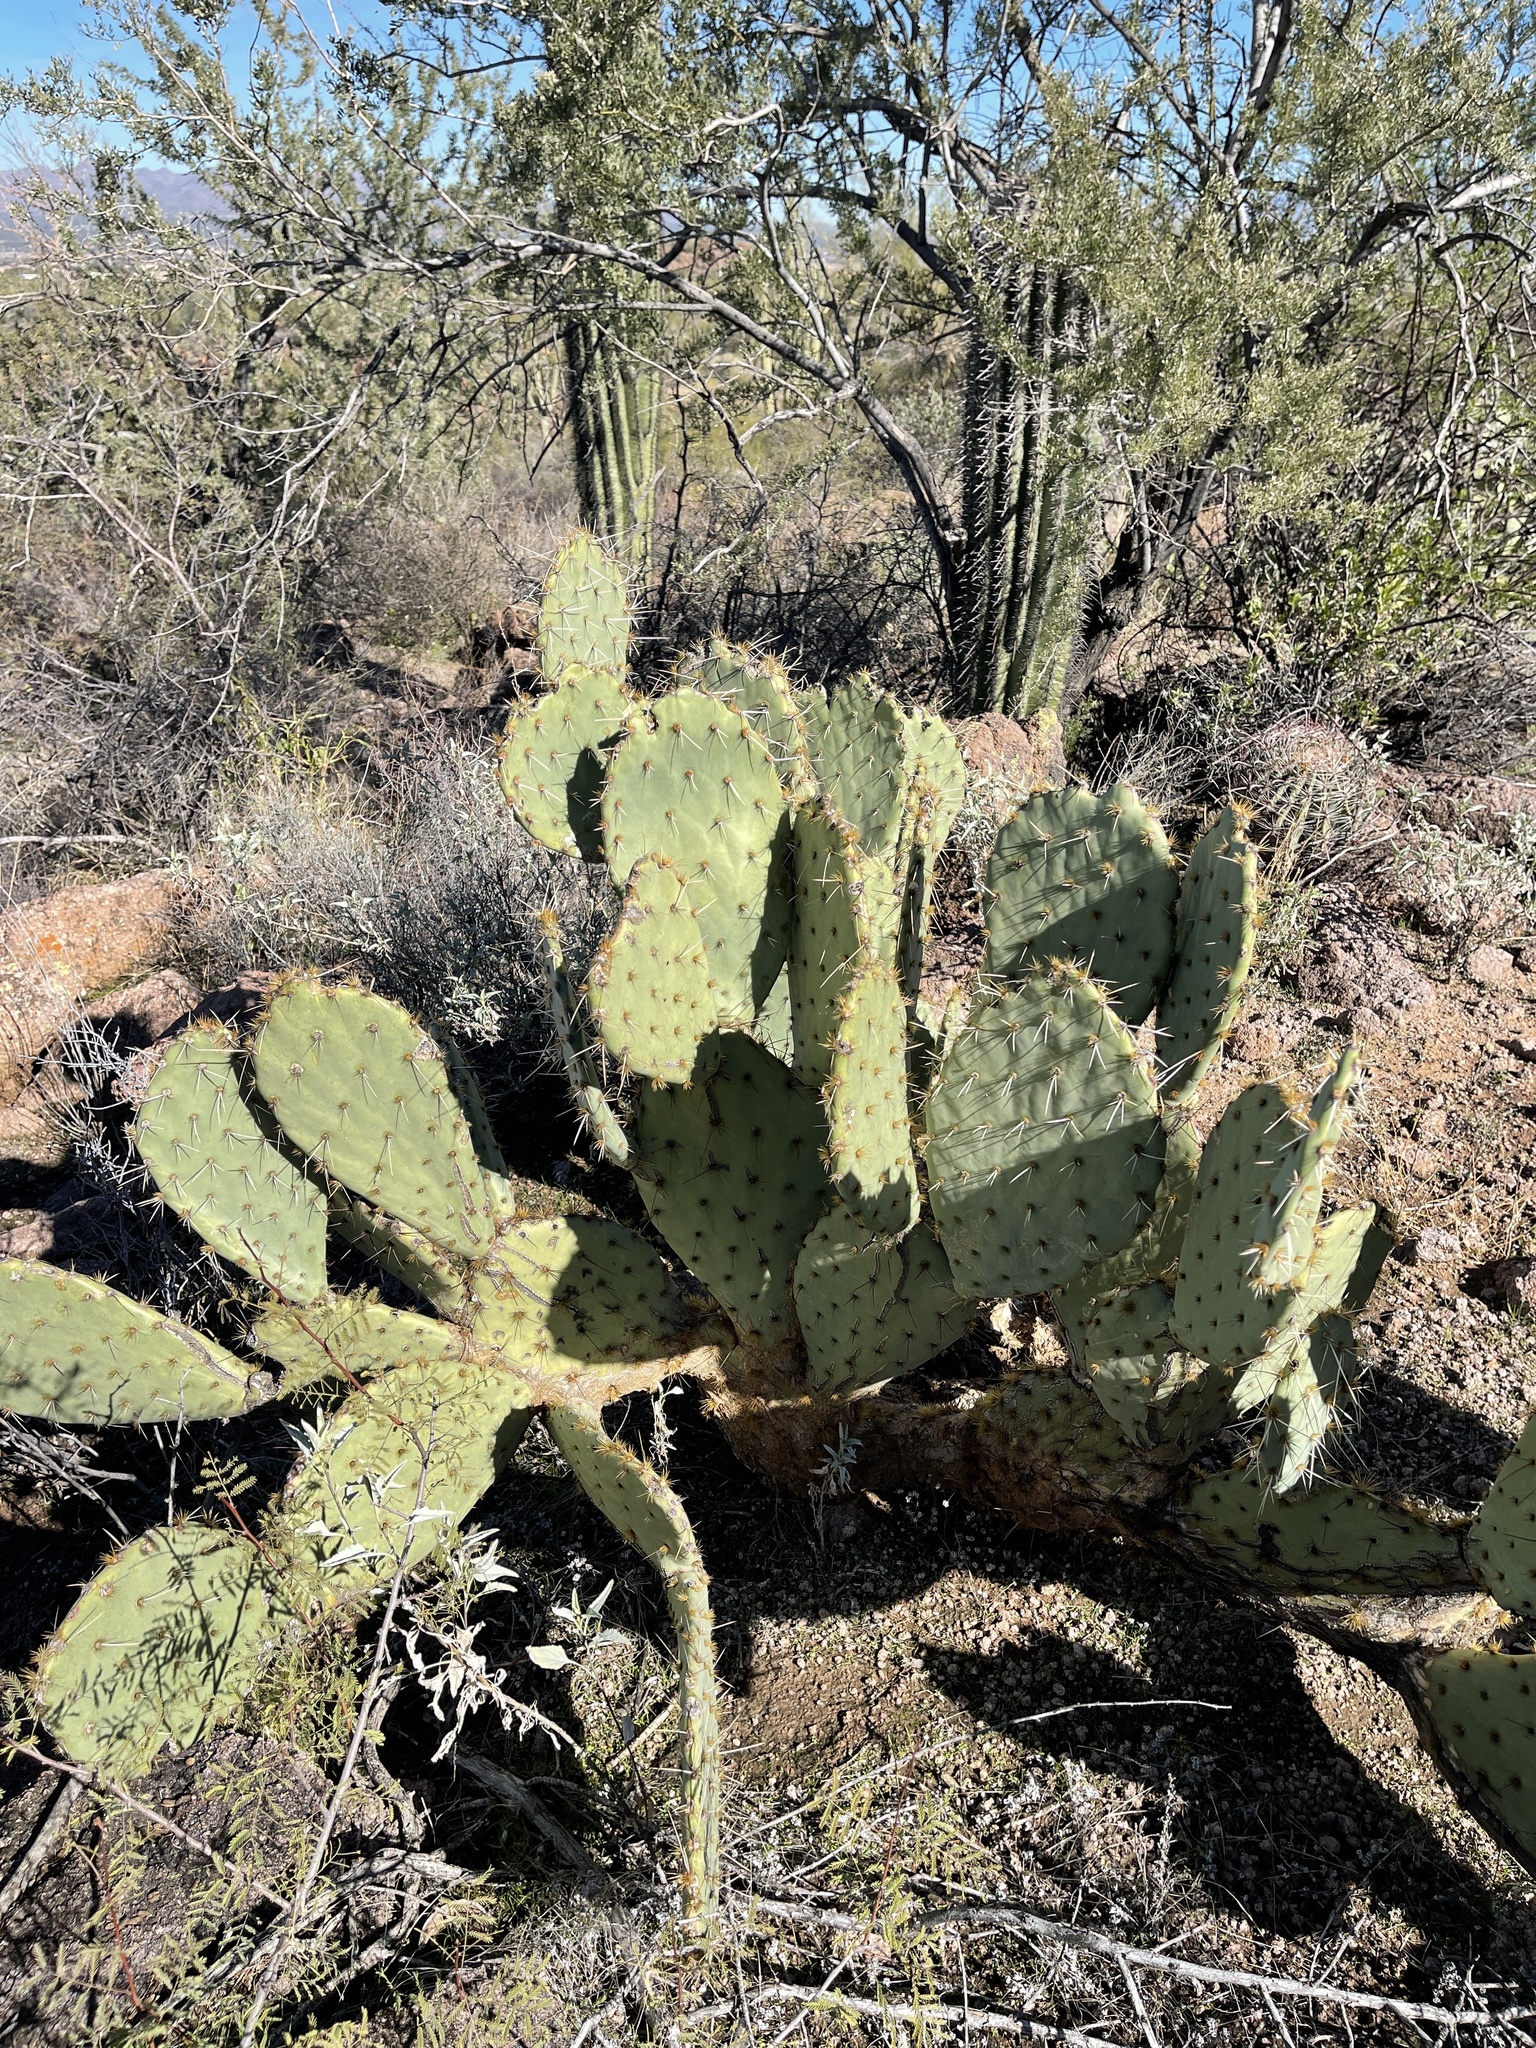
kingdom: Plantae
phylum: Tracheophyta
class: Magnoliopsida
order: Caryophyllales
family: Cactaceae
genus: Opuntia
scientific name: Opuntia engelmannii
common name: Cactus-apple
